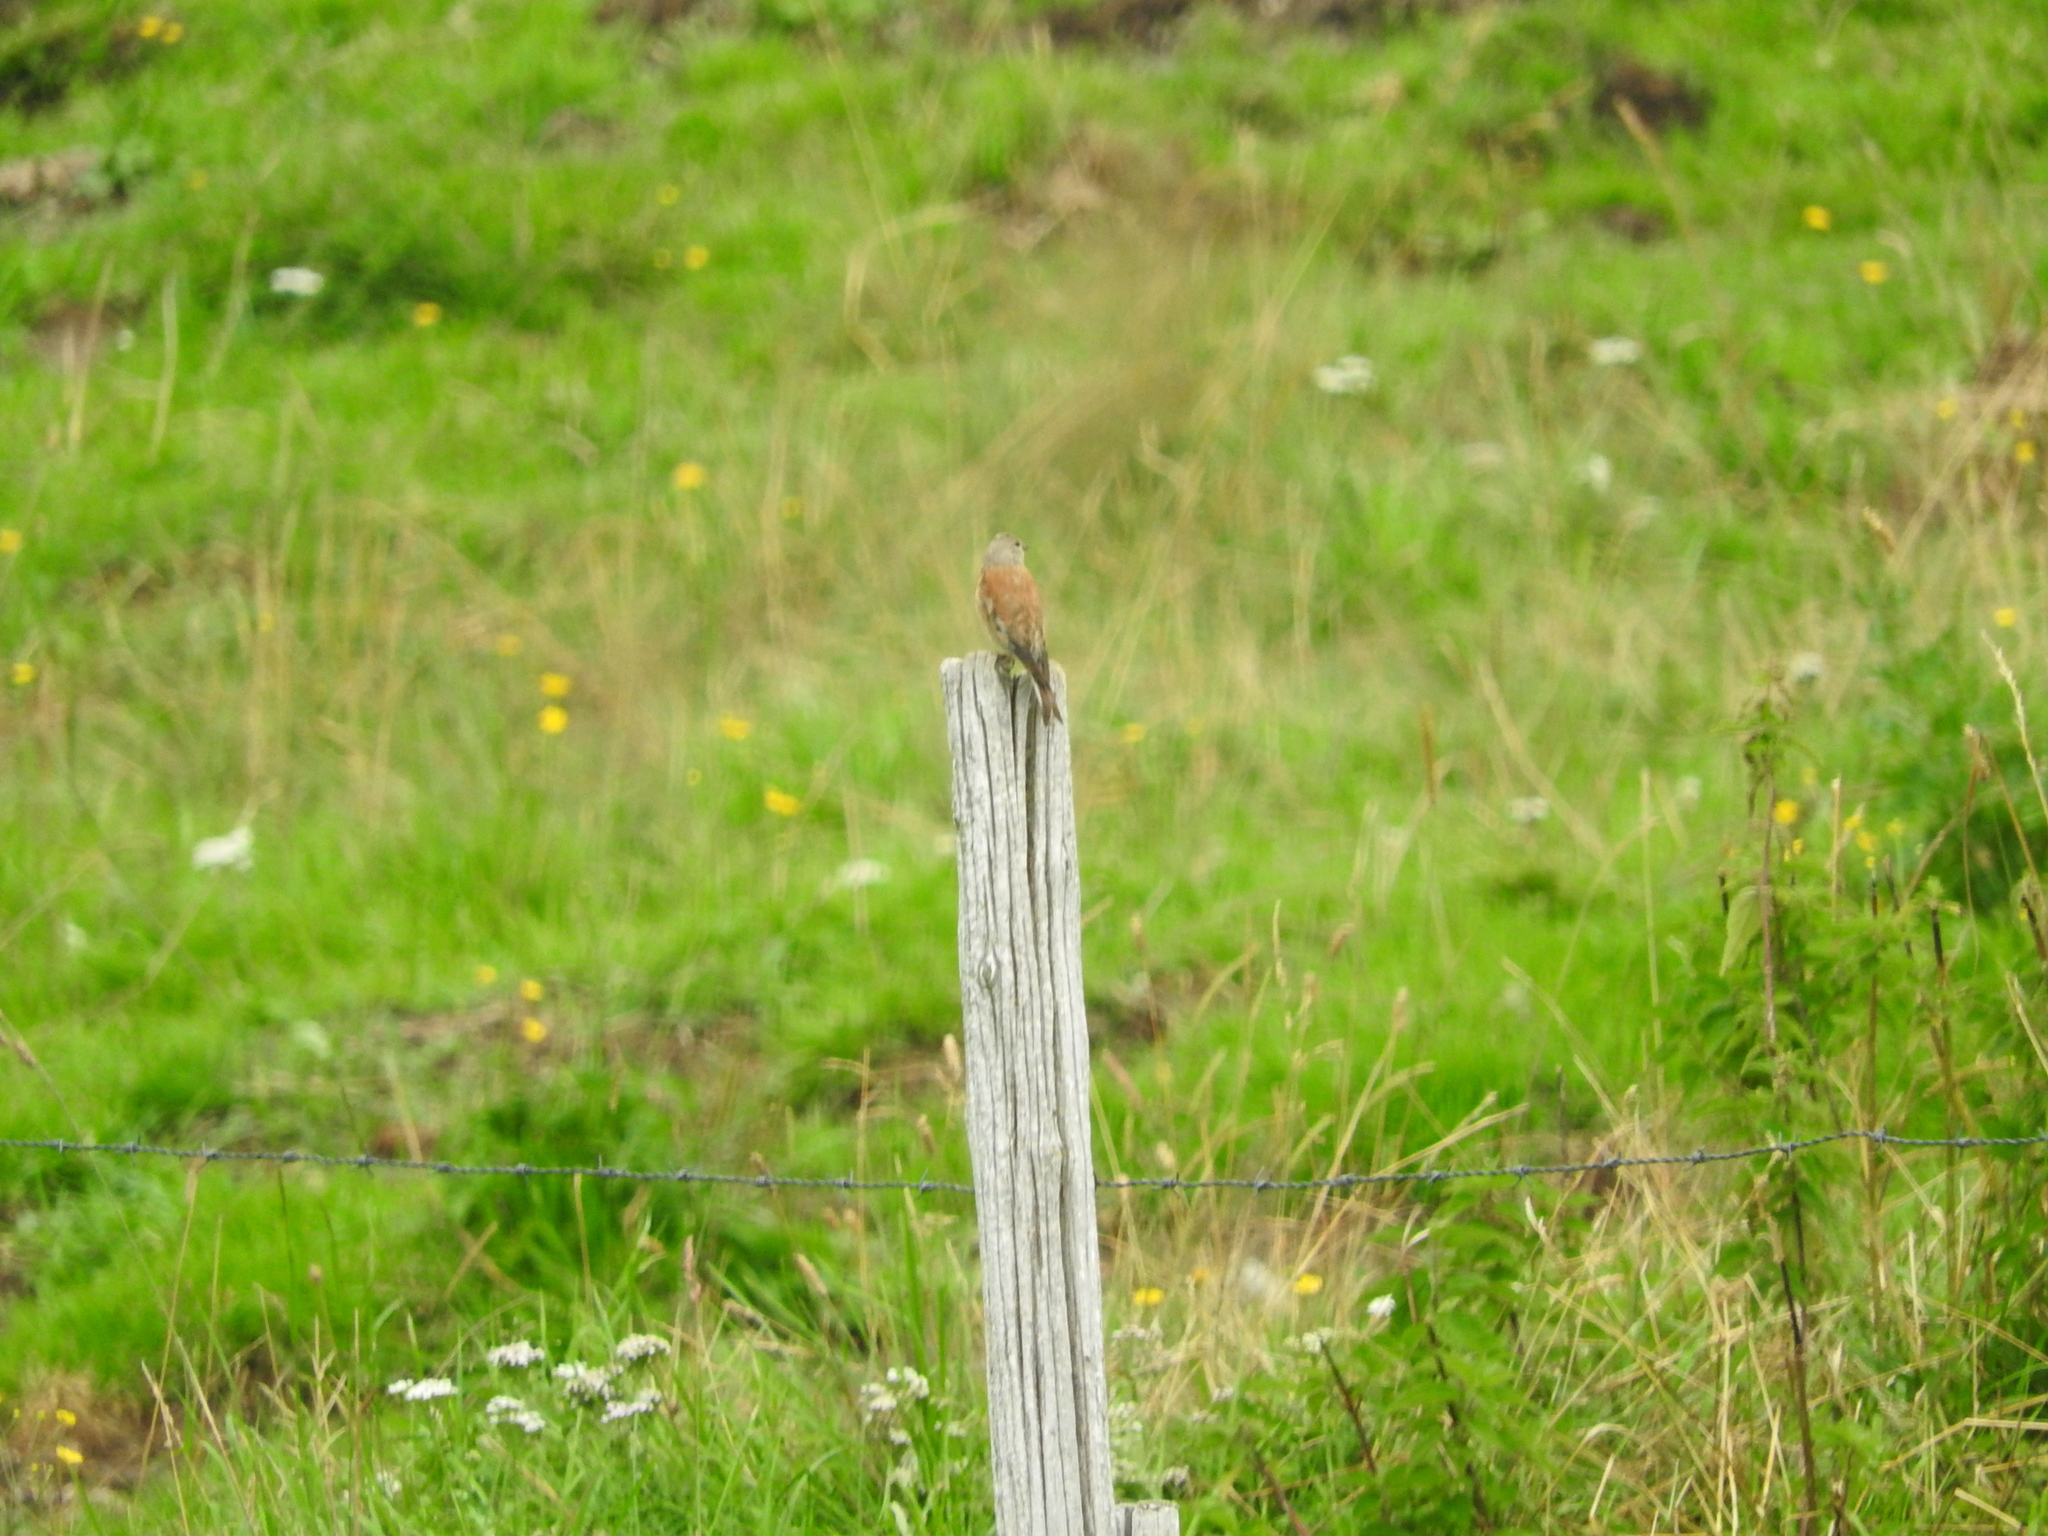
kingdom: Animalia
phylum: Chordata
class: Aves
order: Passeriformes
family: Fringillidae
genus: Linaria
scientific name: Linaria cannabina
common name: Common linnet
